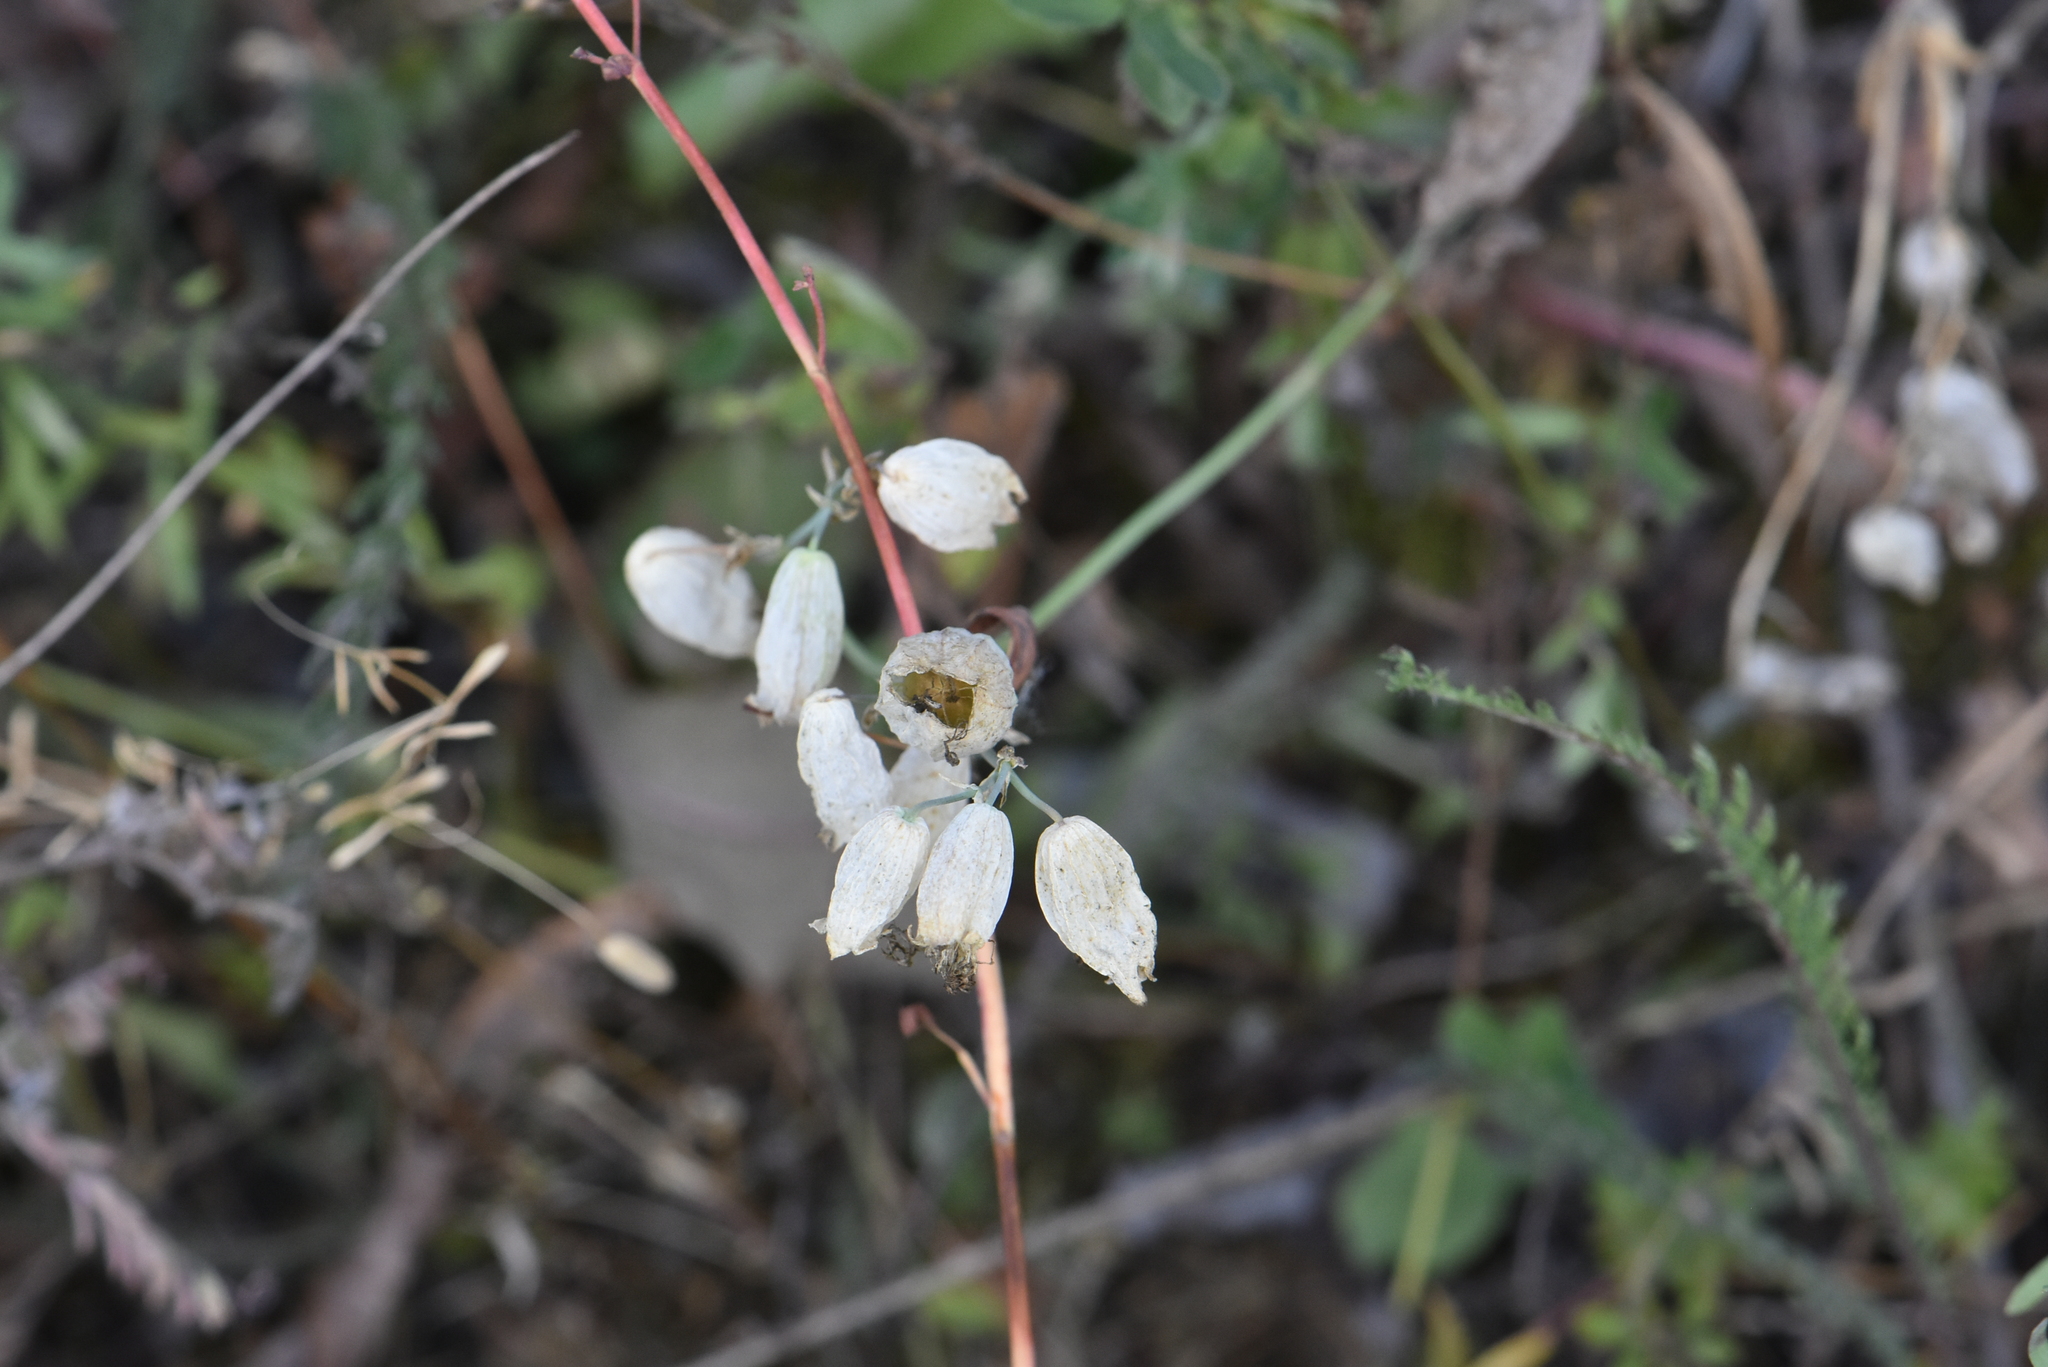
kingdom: Plantae
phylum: Tracheophyta
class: Magnoliopsida
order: Caryophyllales
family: Caryophyllaceae
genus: Silene
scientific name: Silene vulgaris
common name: Bladder campion
